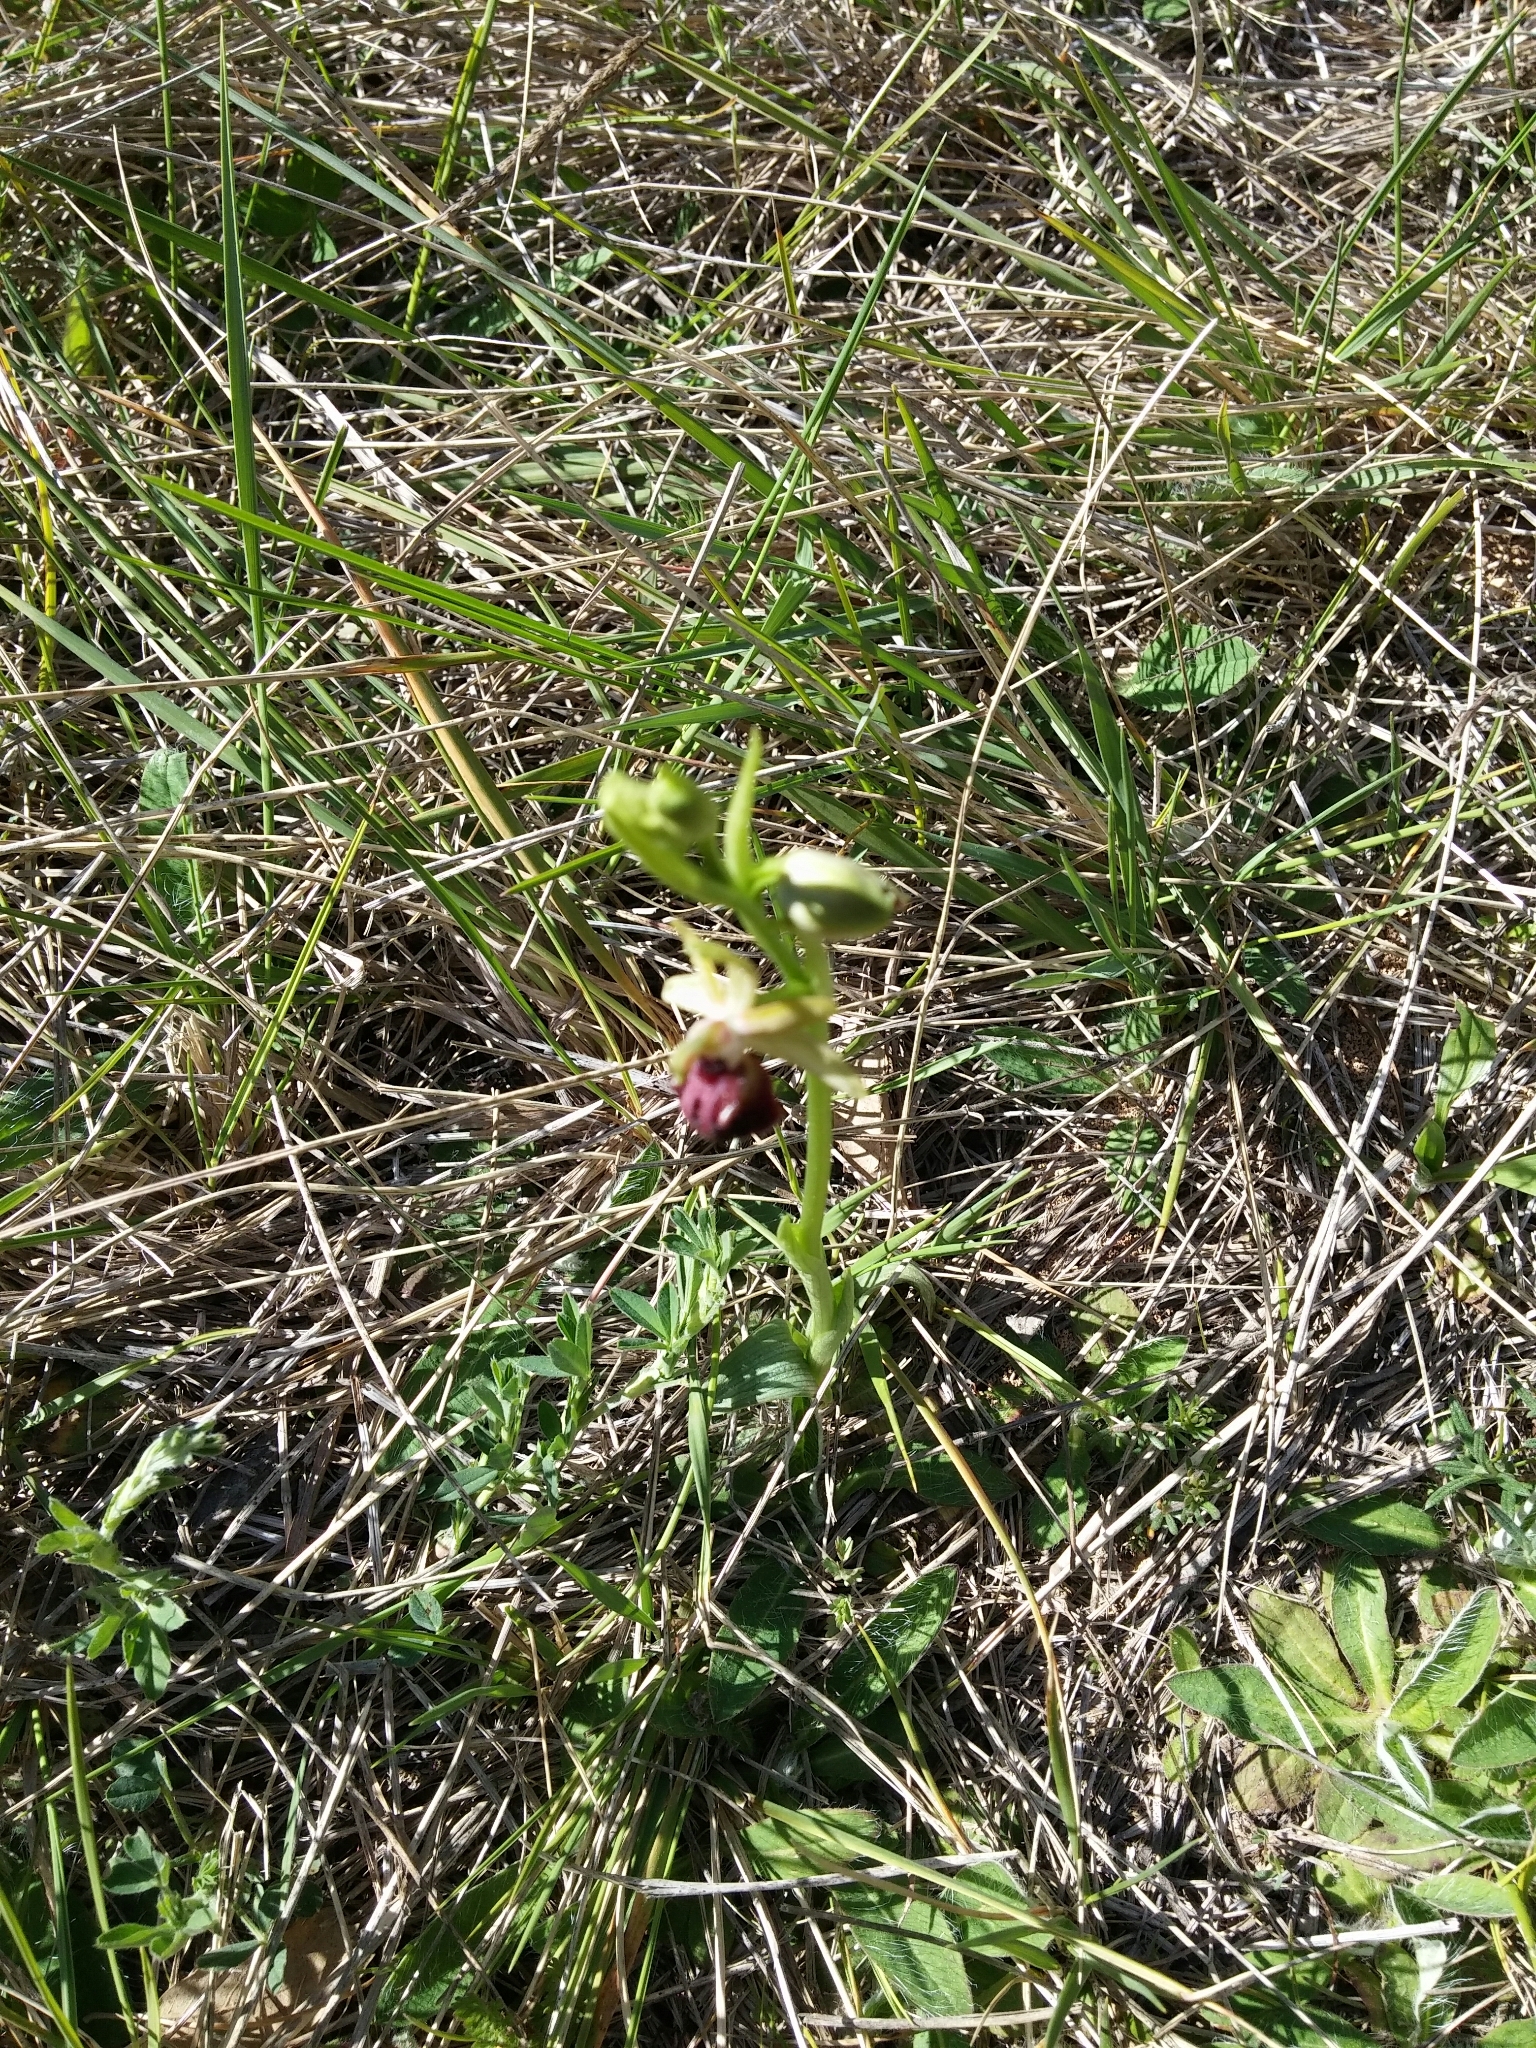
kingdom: Plantae
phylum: Tracheophyta
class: Liliopsida
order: Asparagales
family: Orchidaceae
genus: Ophrys
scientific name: Ophrys sphegodes
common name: Early spider-orchid
